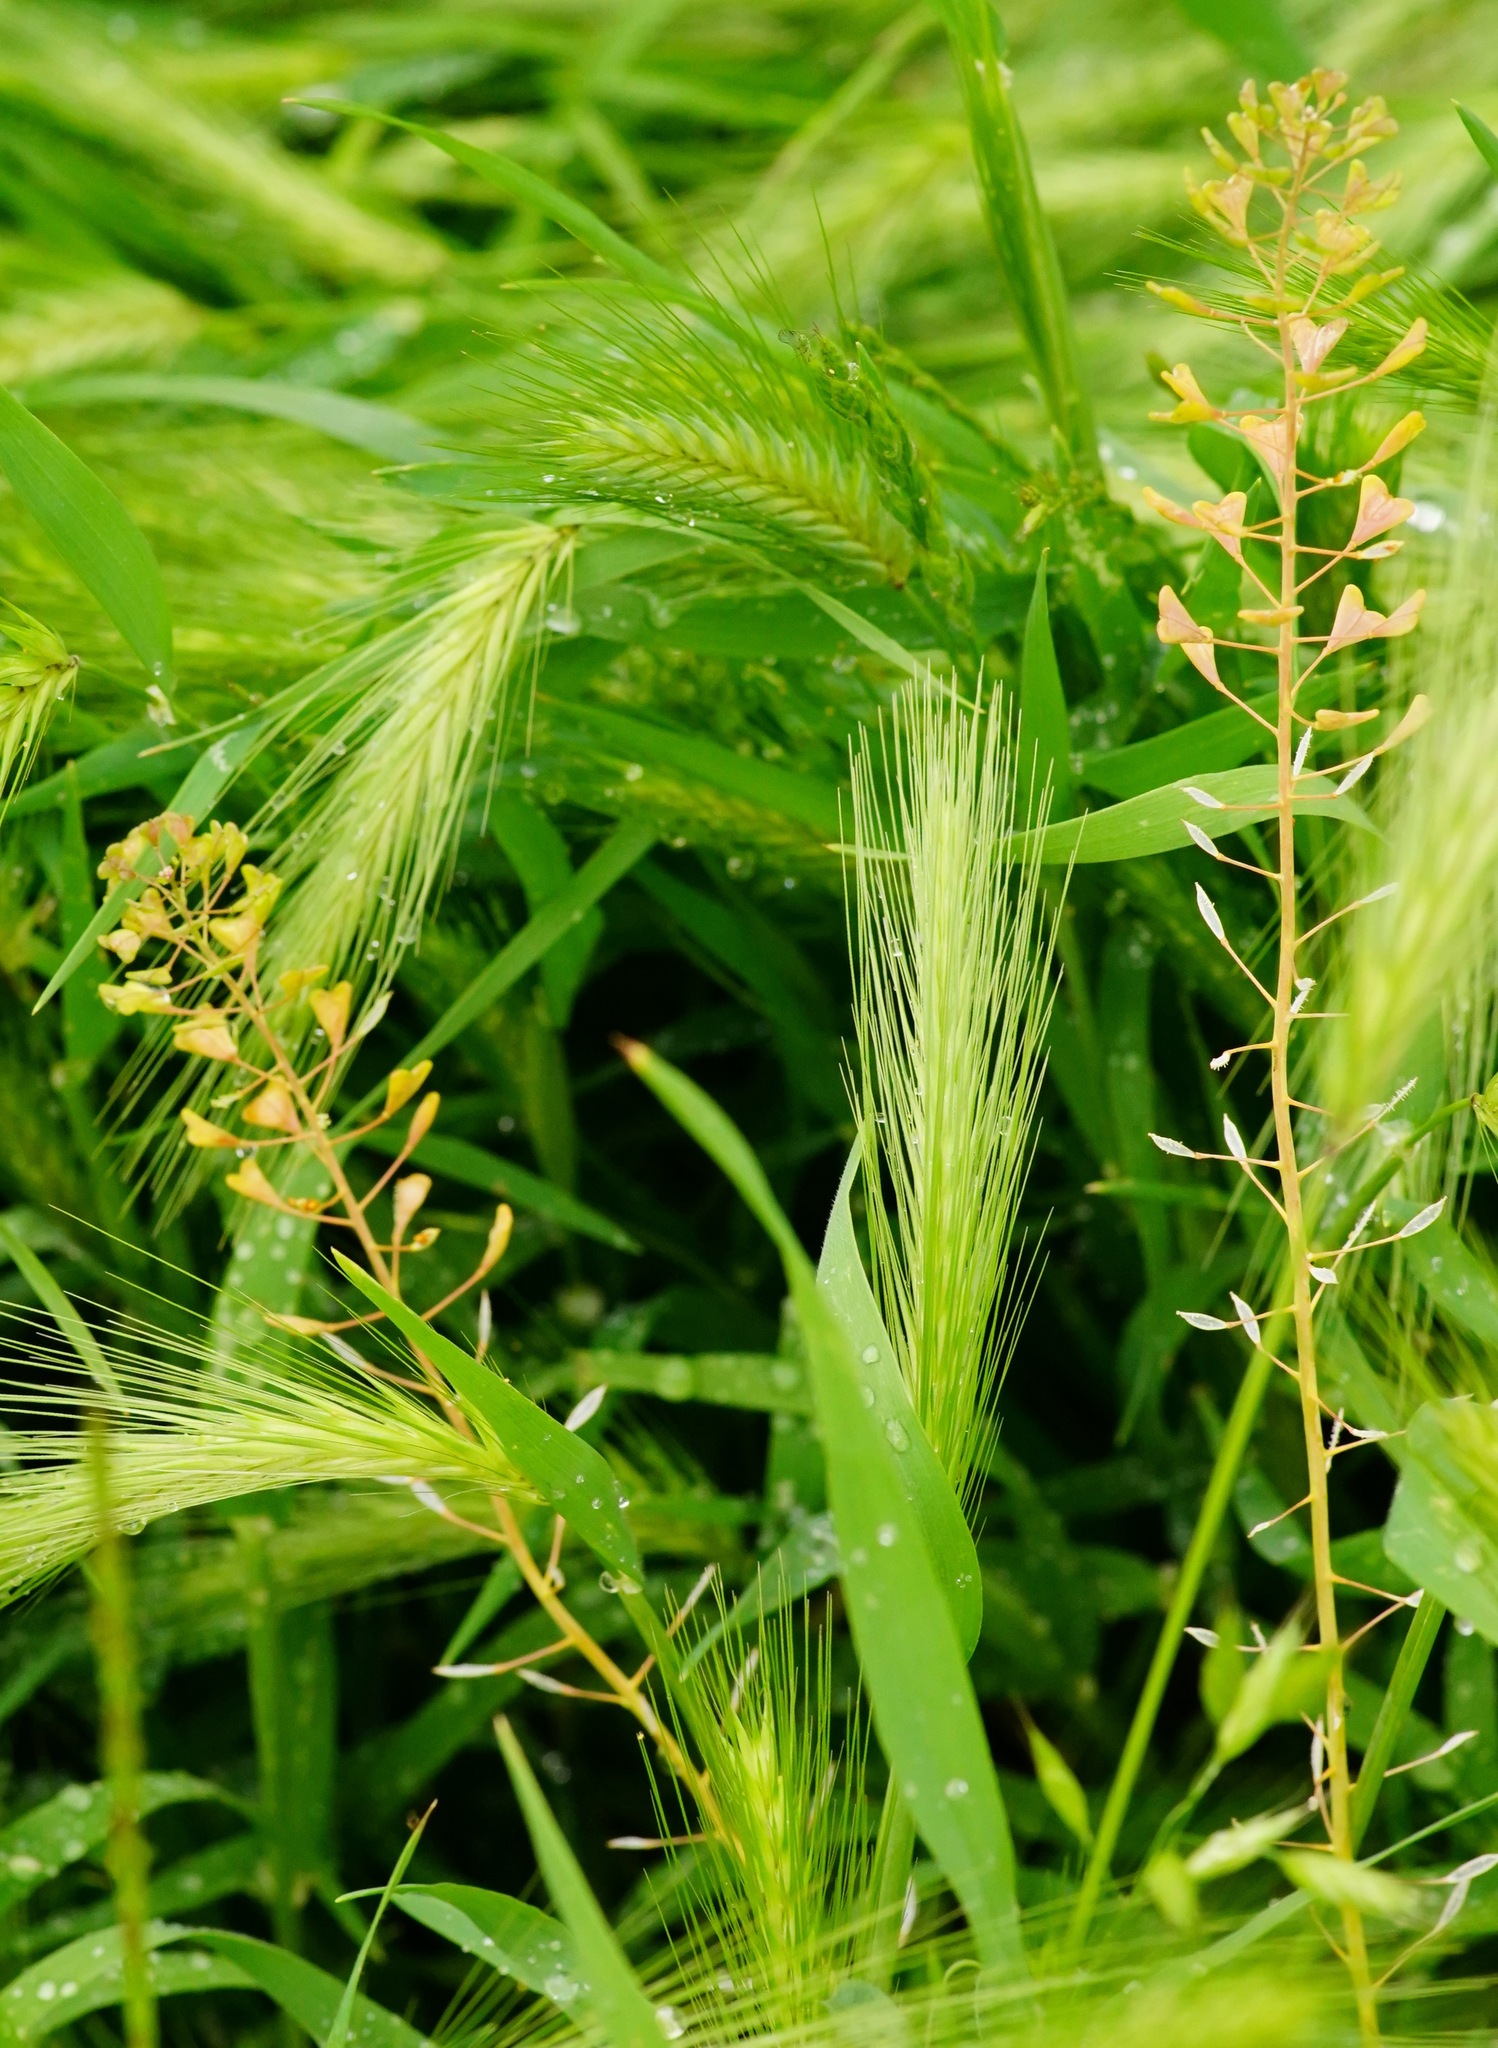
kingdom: Plantae
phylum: Tracheophyta
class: Magnoliopsida
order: Brassicales
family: Brassicaceae
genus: Capsella
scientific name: Capsella bursa-pastoris
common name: Shepherd's purse
